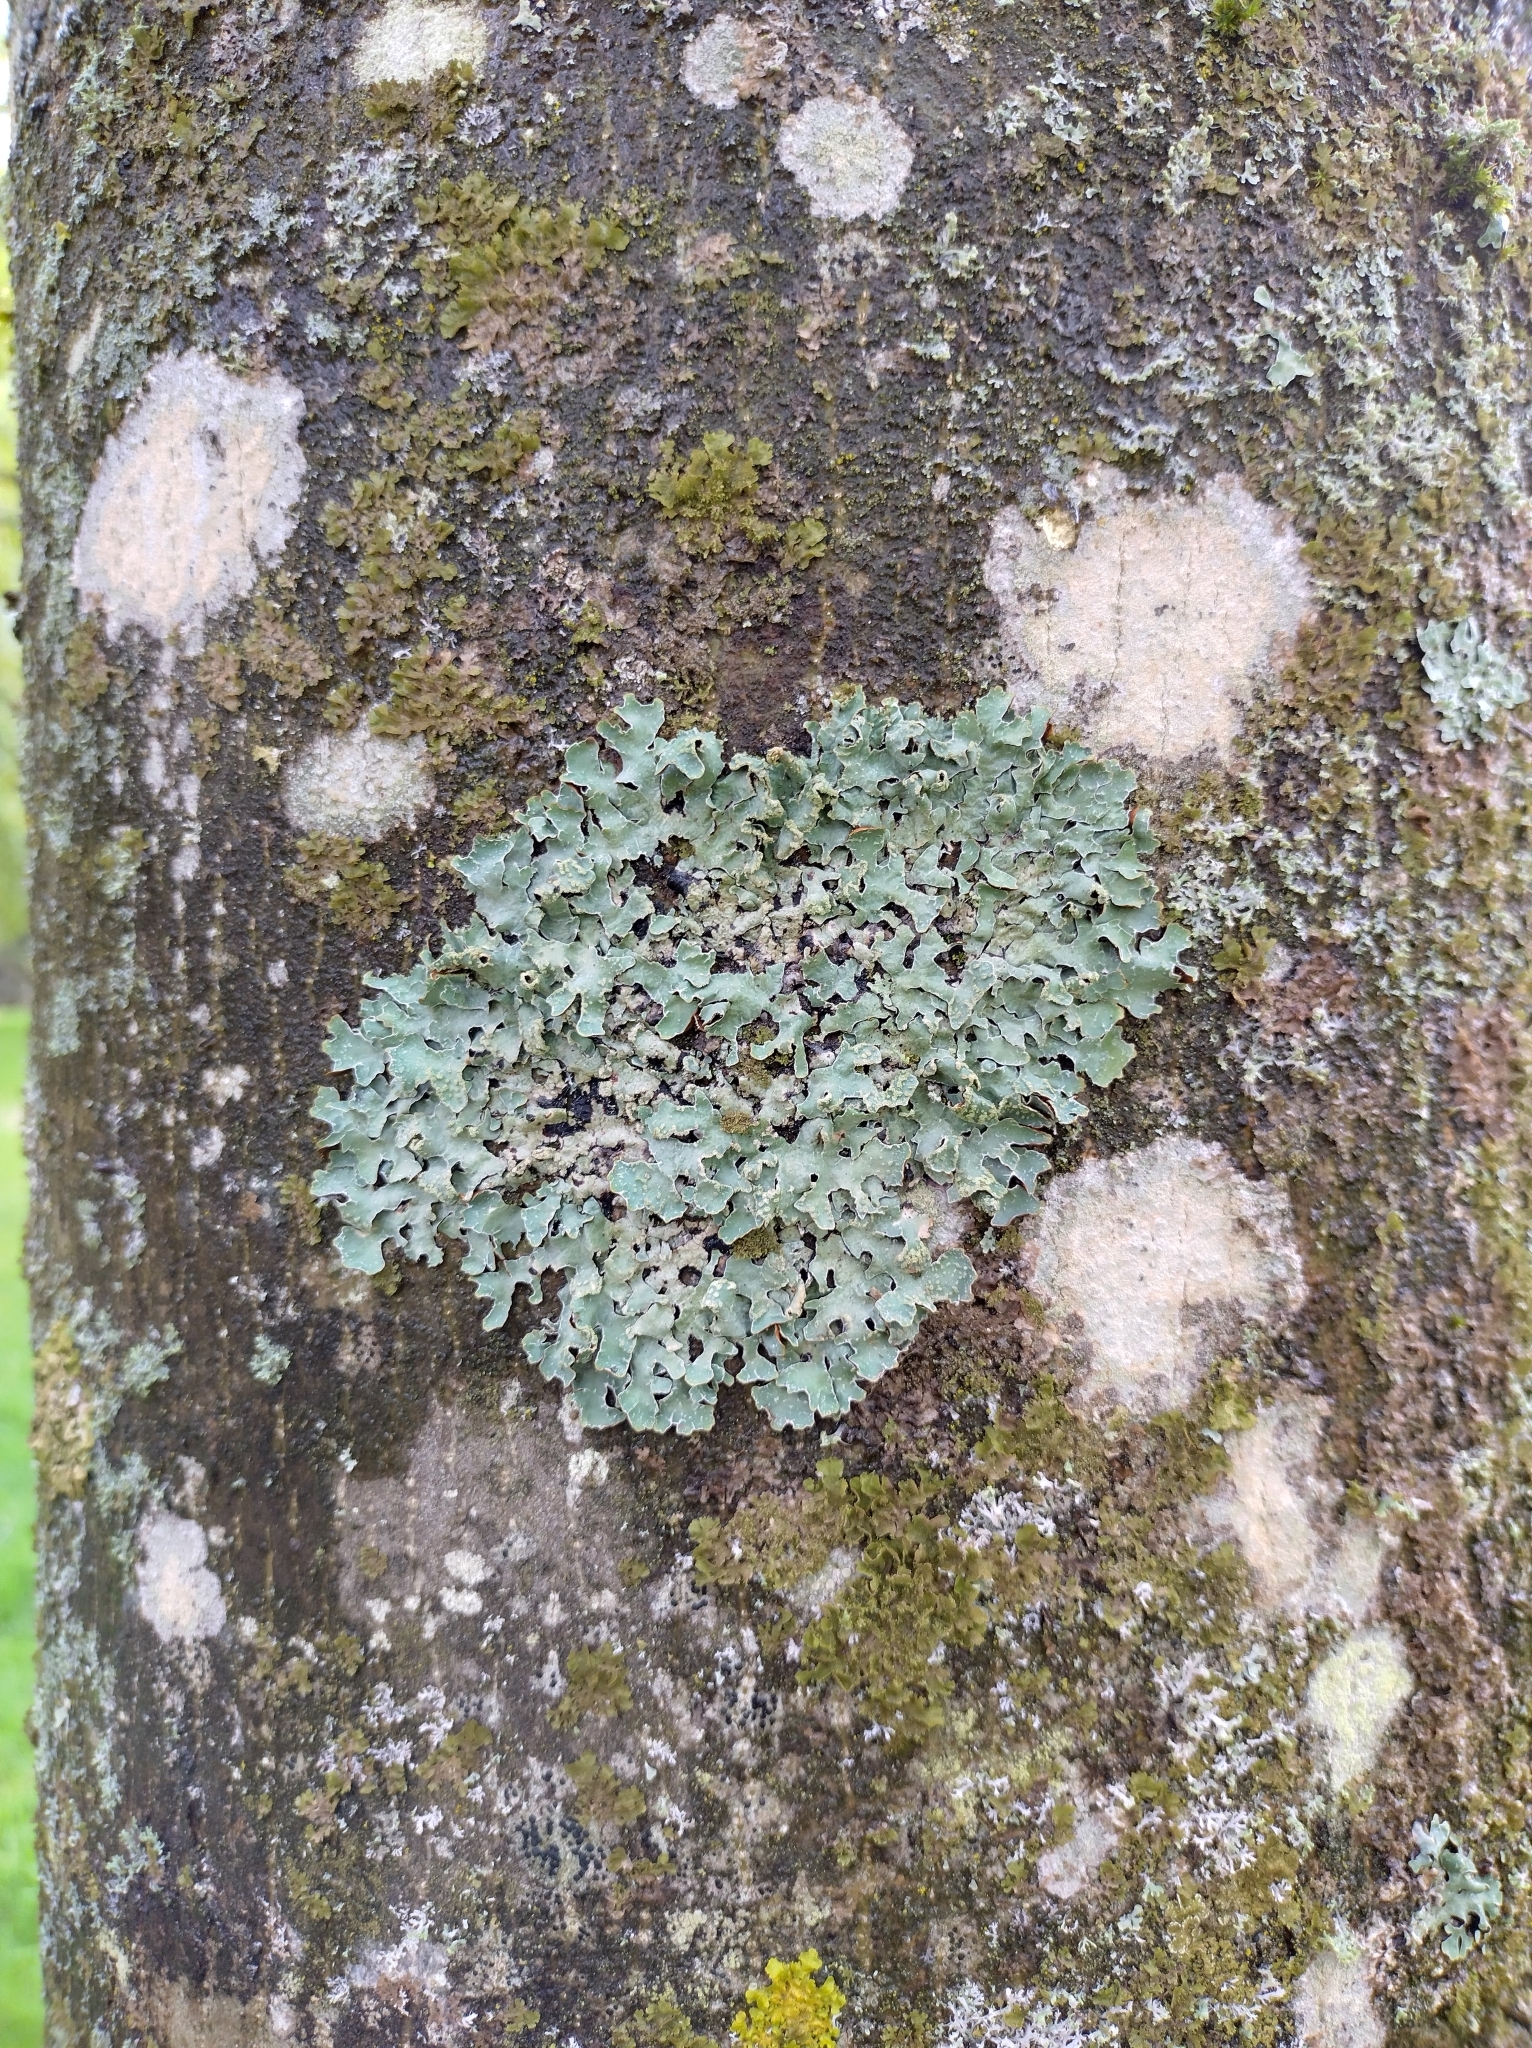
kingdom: Fungi
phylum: Ascomycota
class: Lecanoromycetes
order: Lecanorales
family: Parmeliaceae
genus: Parmelia
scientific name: Parmelia sulcata
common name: Netted shield lichen
